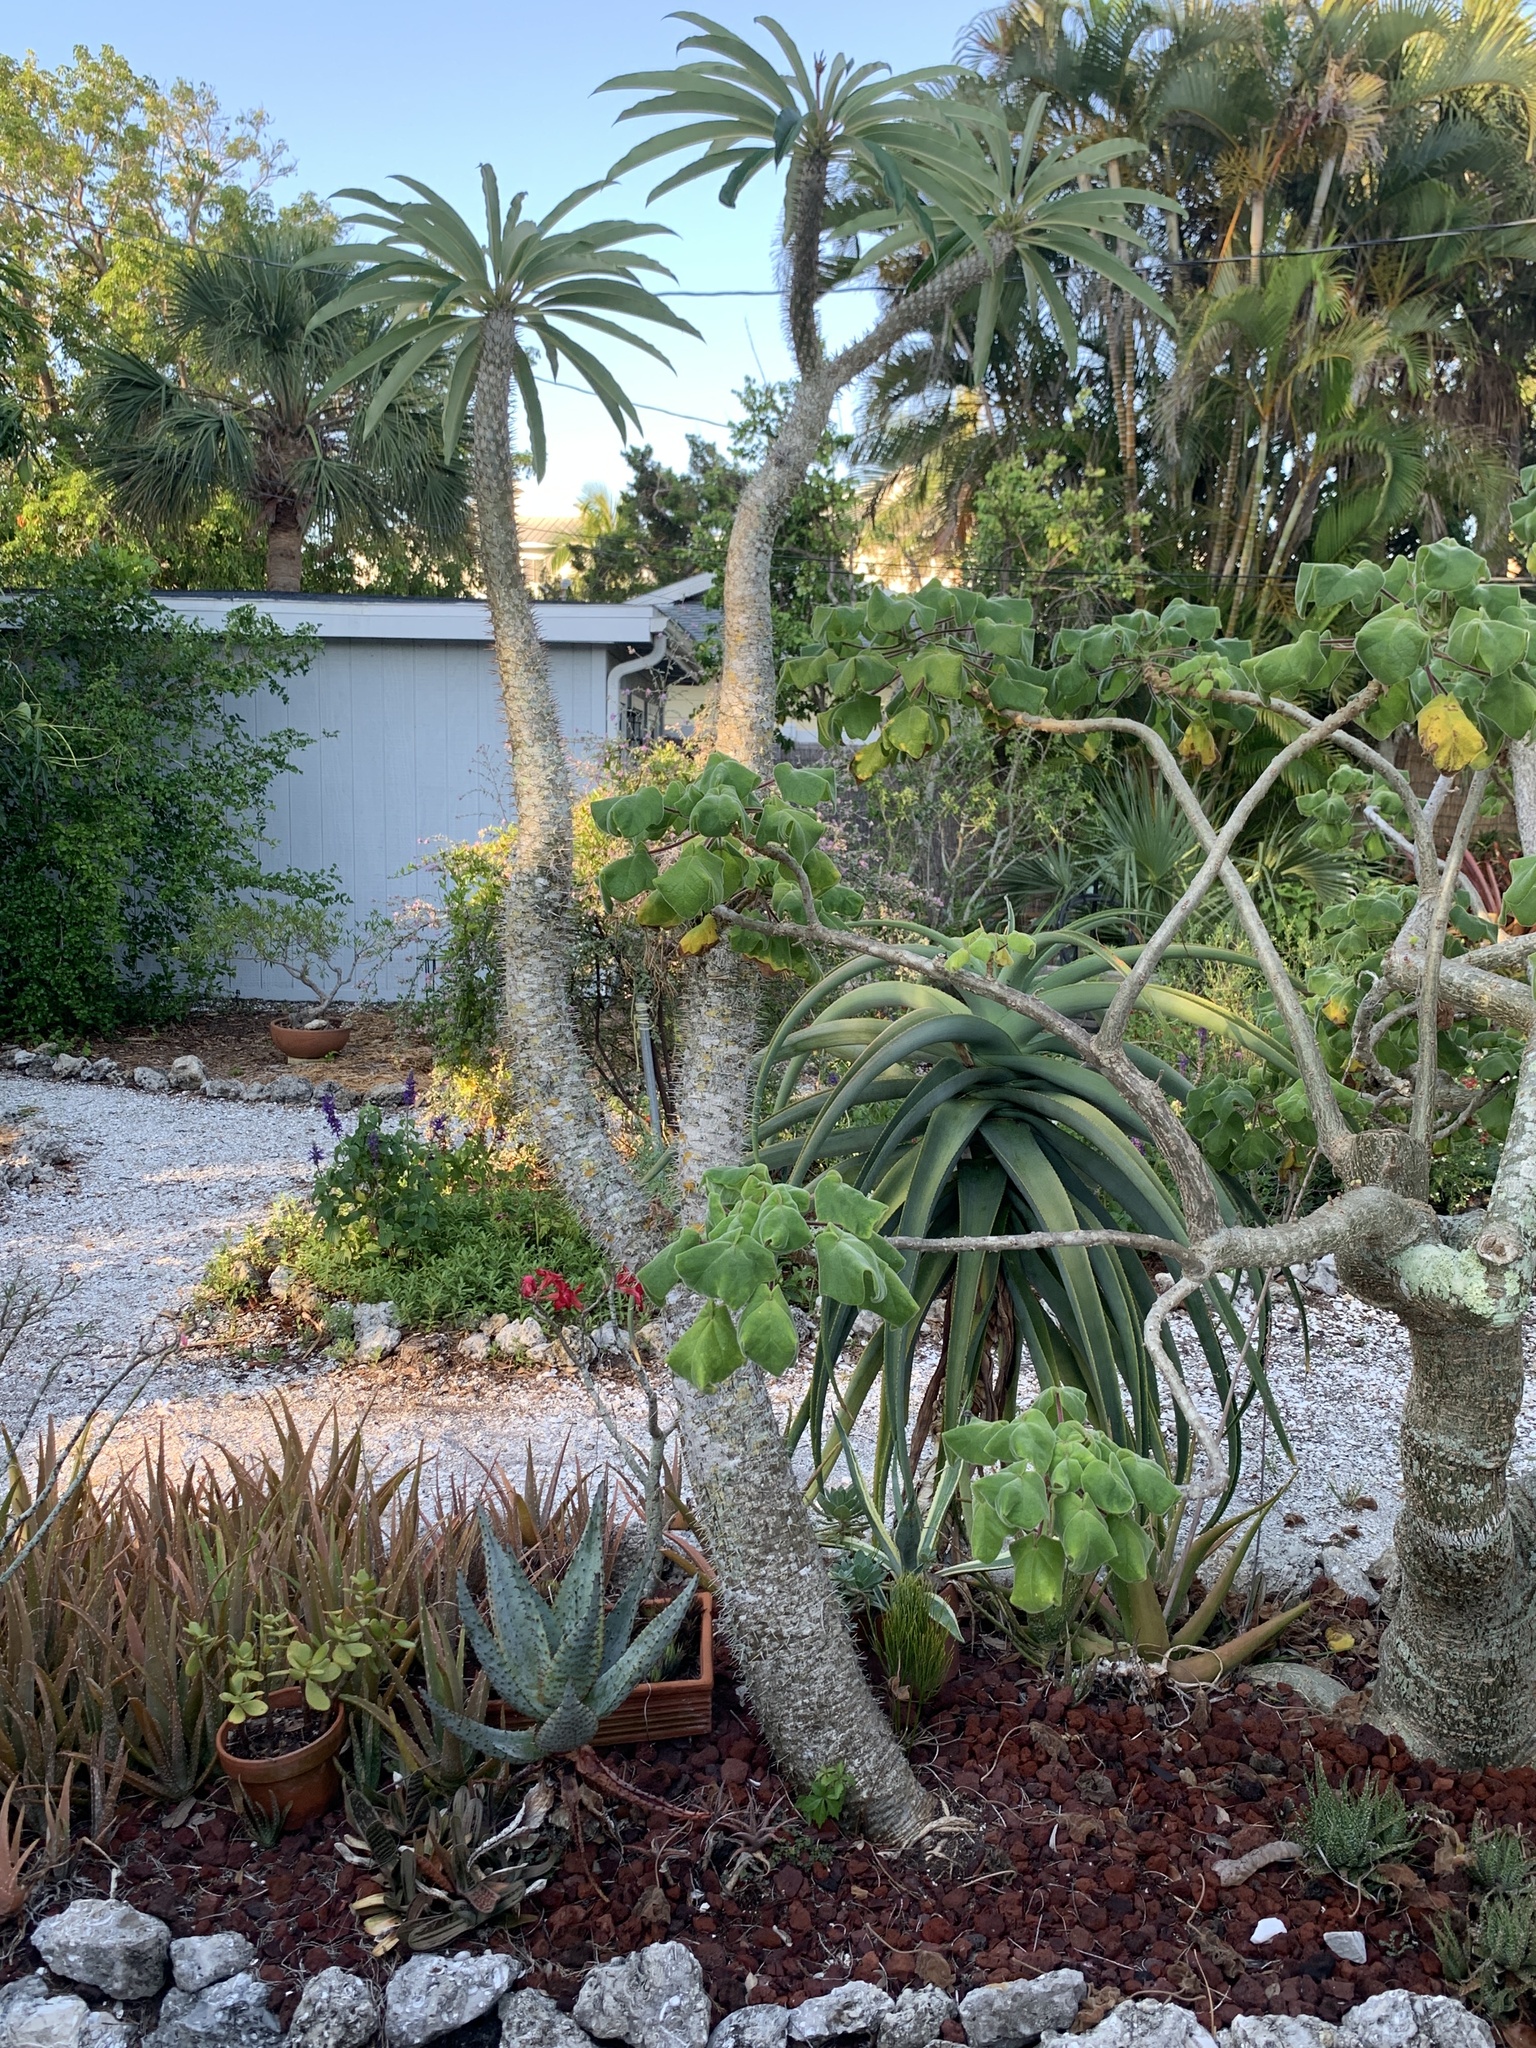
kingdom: Plantae
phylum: Tracheophyta
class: Polypodiopsida
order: Psilotales
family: Psilotaceae
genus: Psilotum
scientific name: Psilotum nudum
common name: Skeleton fork fern
